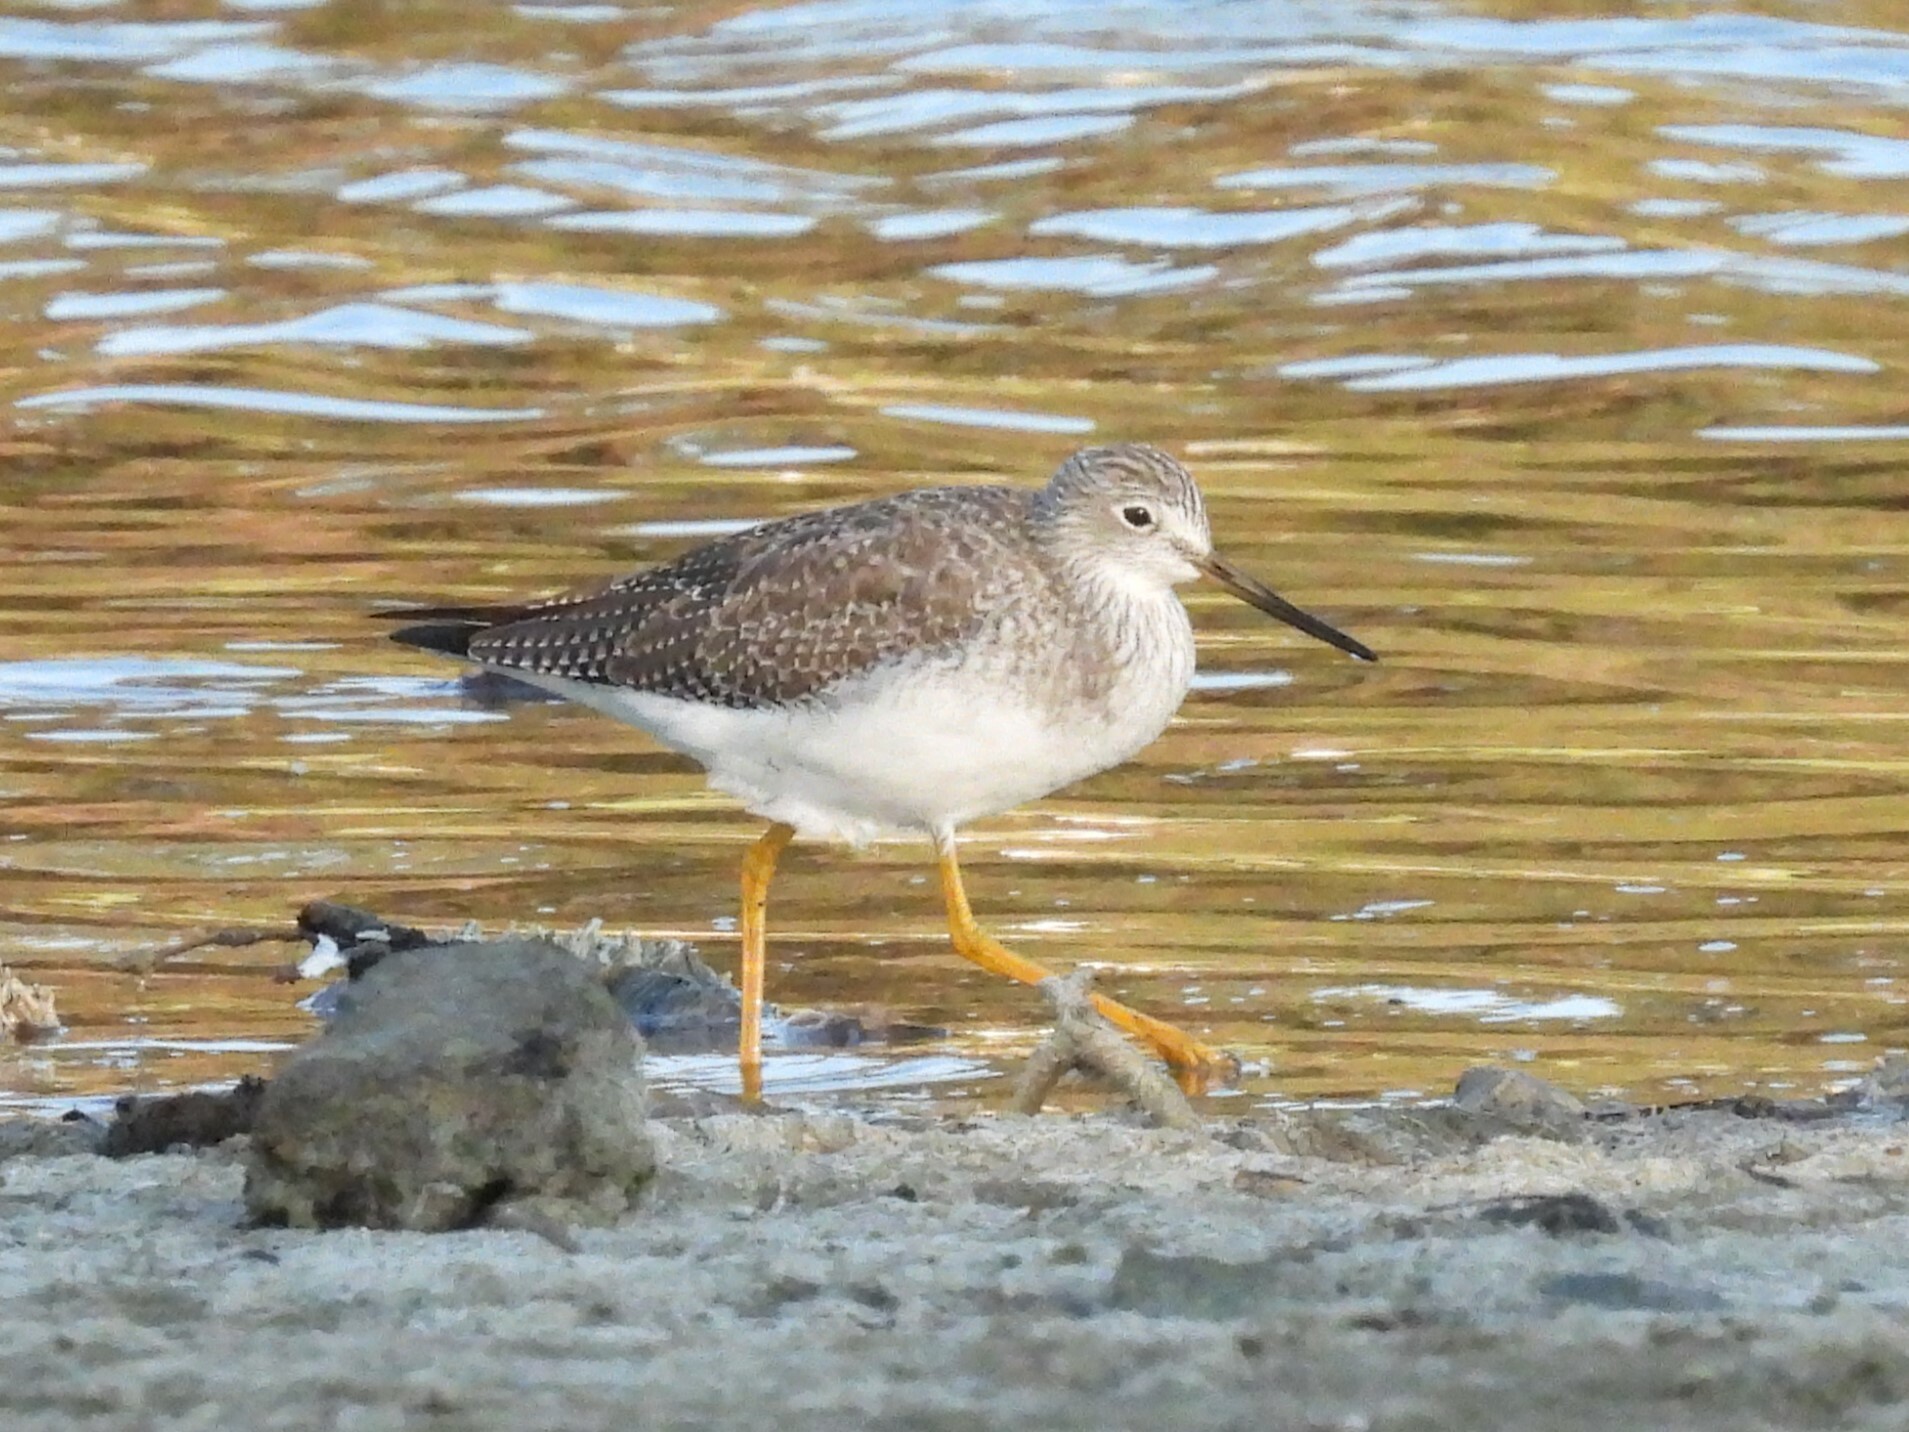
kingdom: Animalia
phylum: Chordata
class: Aves
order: Charadriiformes
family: Scolopacidae
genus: Tringa
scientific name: Tringa melanoleuca
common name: Greater yellowlegs
